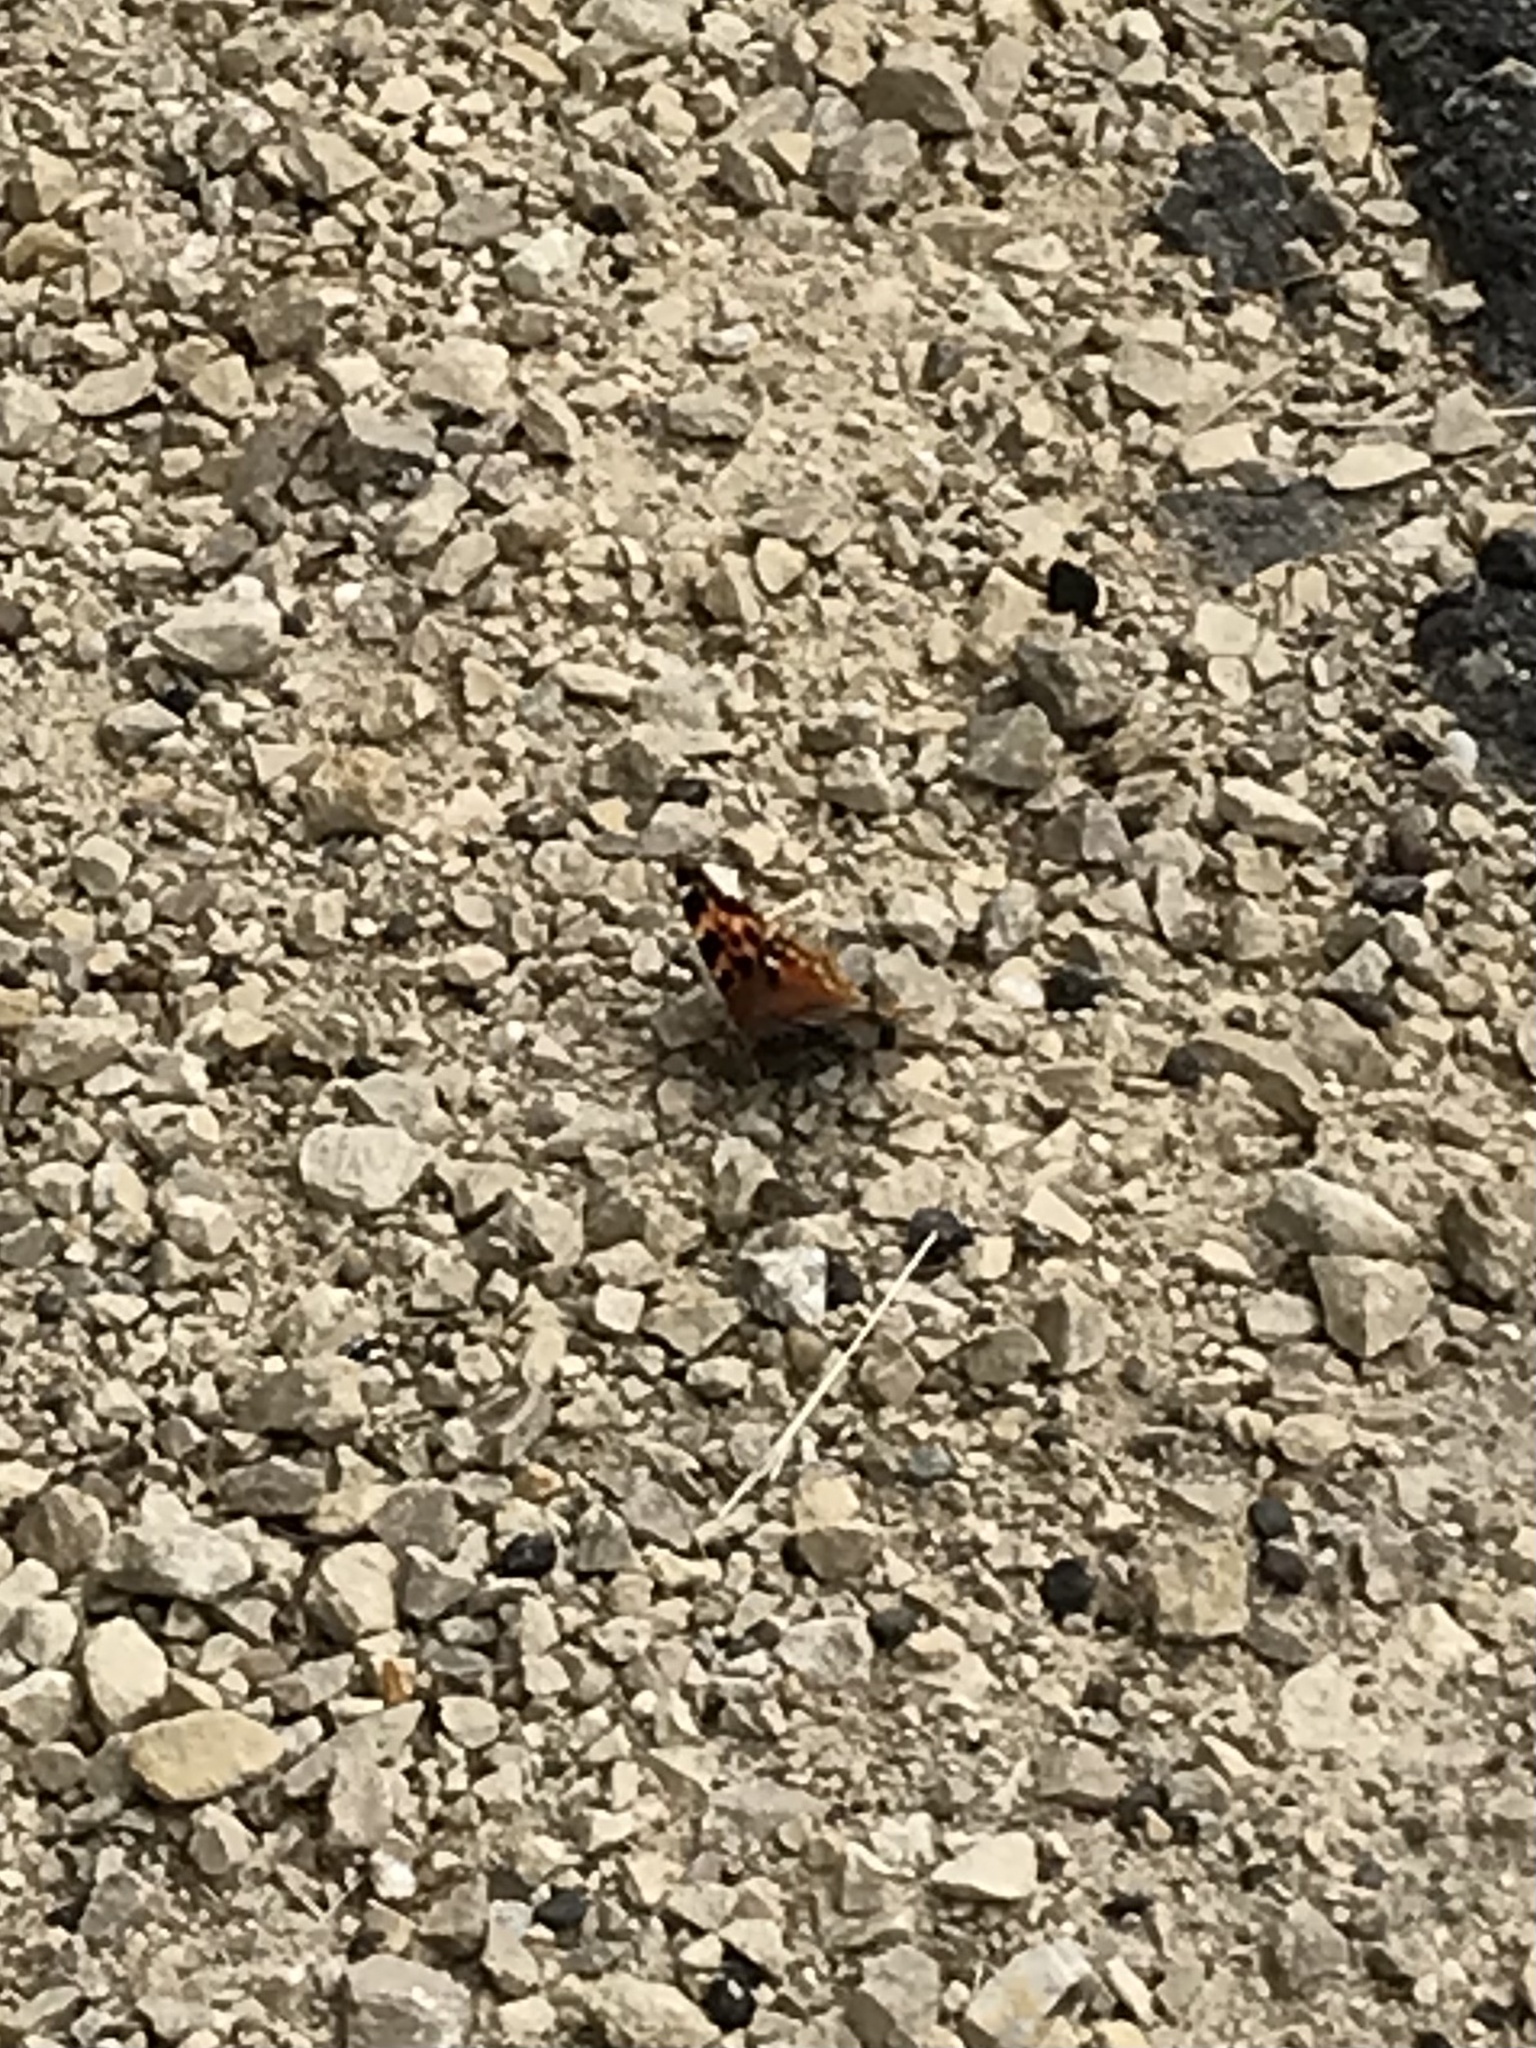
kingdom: Animalia
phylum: Arthropoda
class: Insecta
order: Lepidoptera
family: Nymphalidae
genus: Polygonia
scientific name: Polygonia vaualbum
